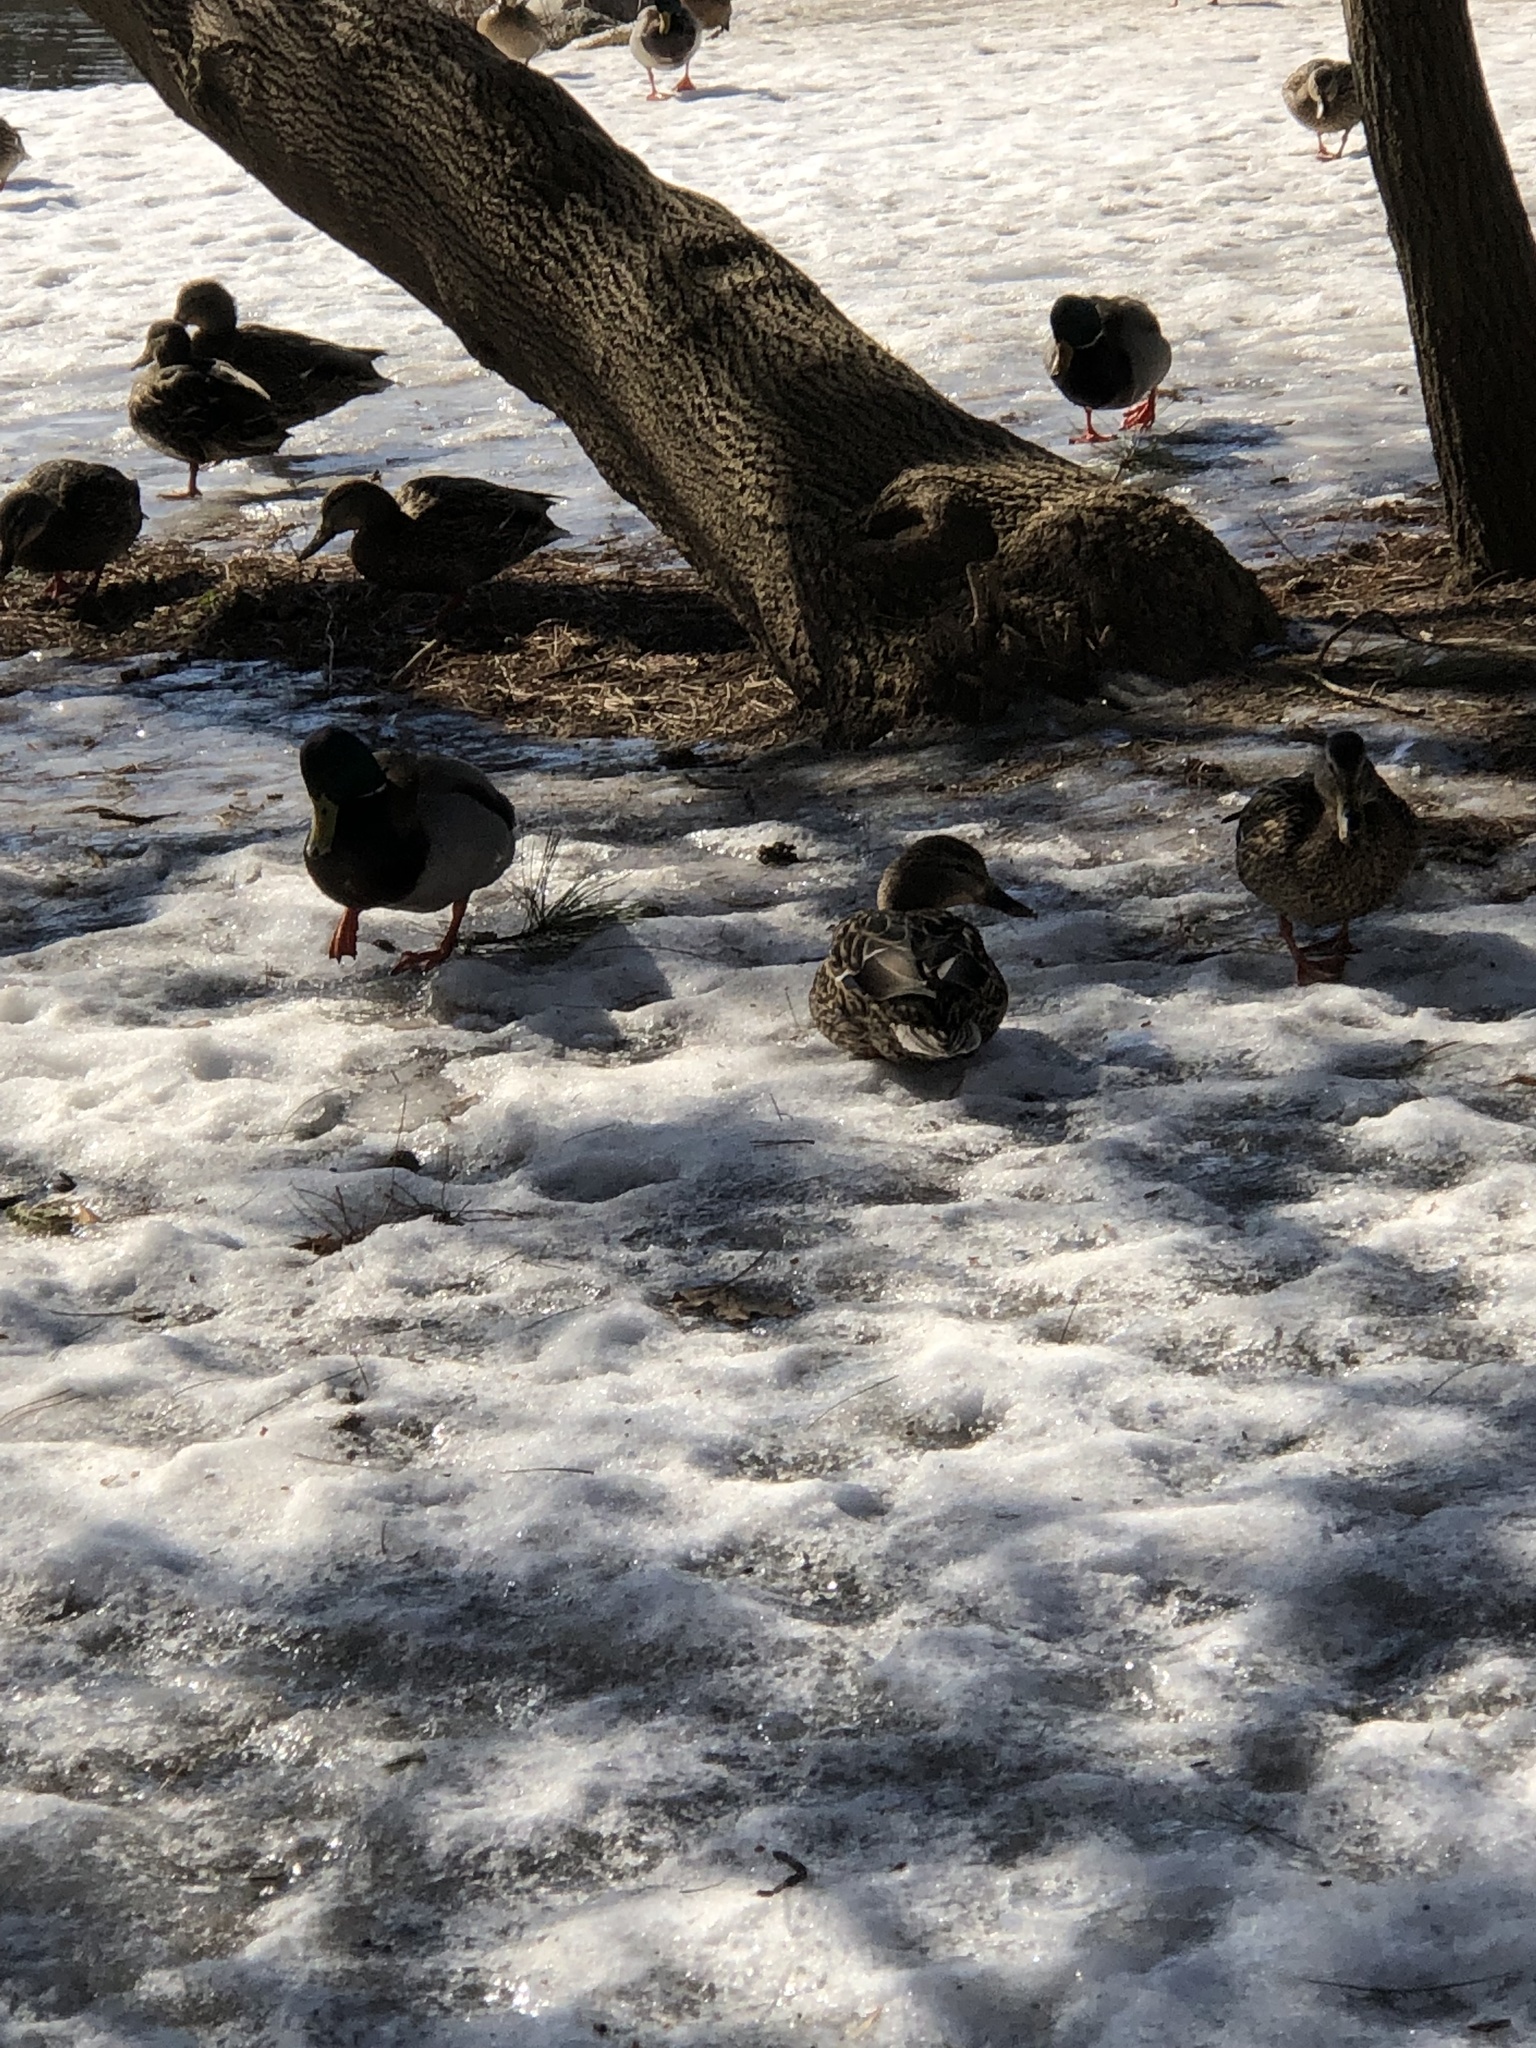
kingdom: Animalia
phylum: Chordata
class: Aves
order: Anseriformes
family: Anatidae
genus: Anas
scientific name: Anas platyrhynchos
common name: Mallard
